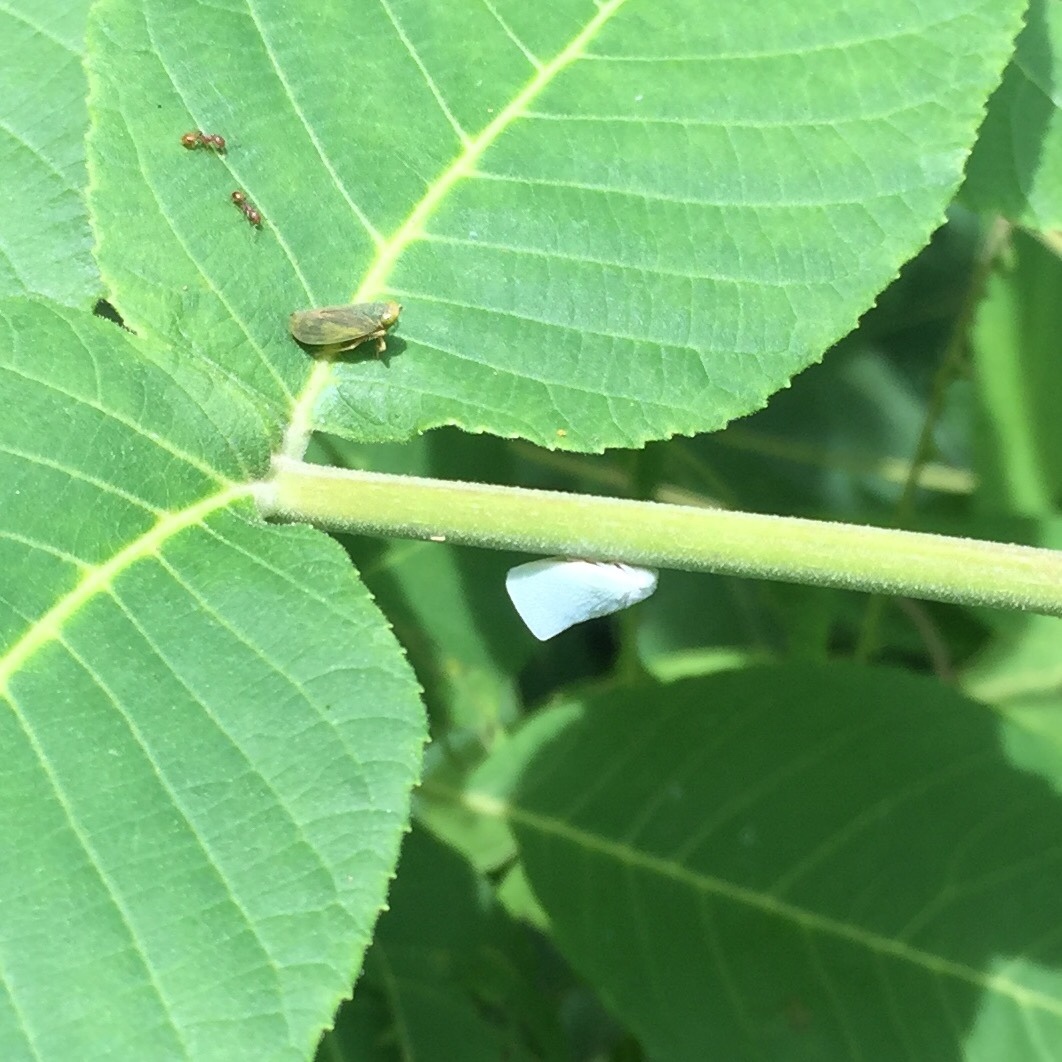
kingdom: Animalia
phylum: Arthropoda
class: Insecta
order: Hemiptera
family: Flatidae
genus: Flatormenis
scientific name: Flatormenis proxima
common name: Northern flatid planthopper
